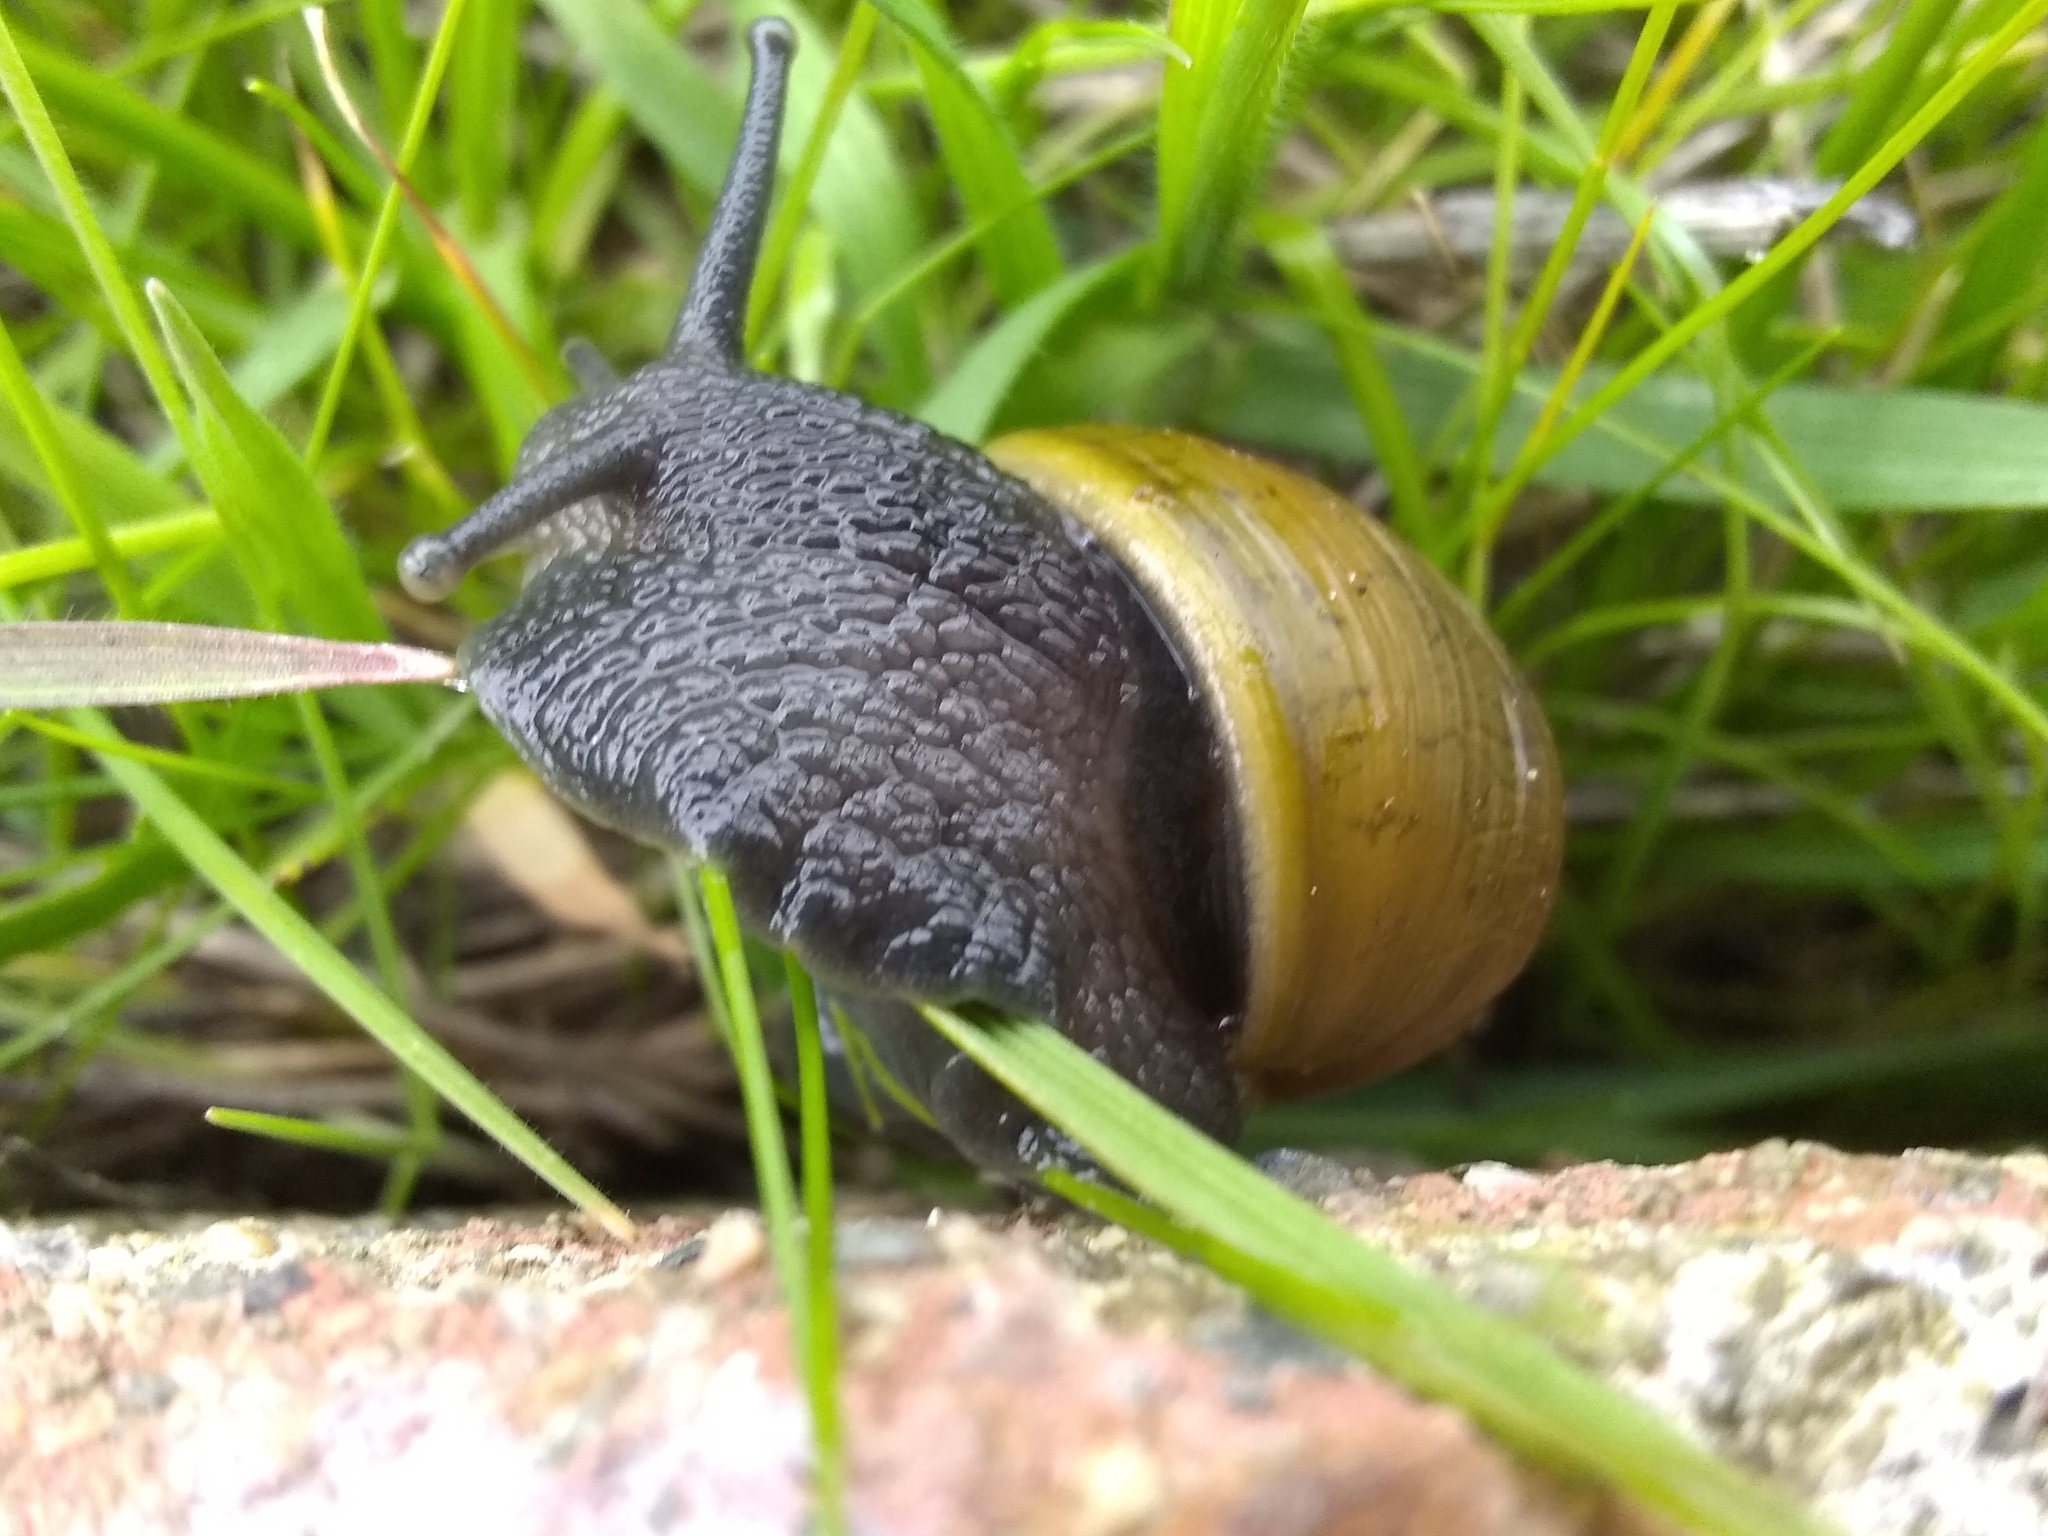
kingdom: Animalia
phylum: Mollusca
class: Gastropoda
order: Stylommatophora
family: Helicidae
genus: Cantareus
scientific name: Cantareus apertus
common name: Green gardensnail
